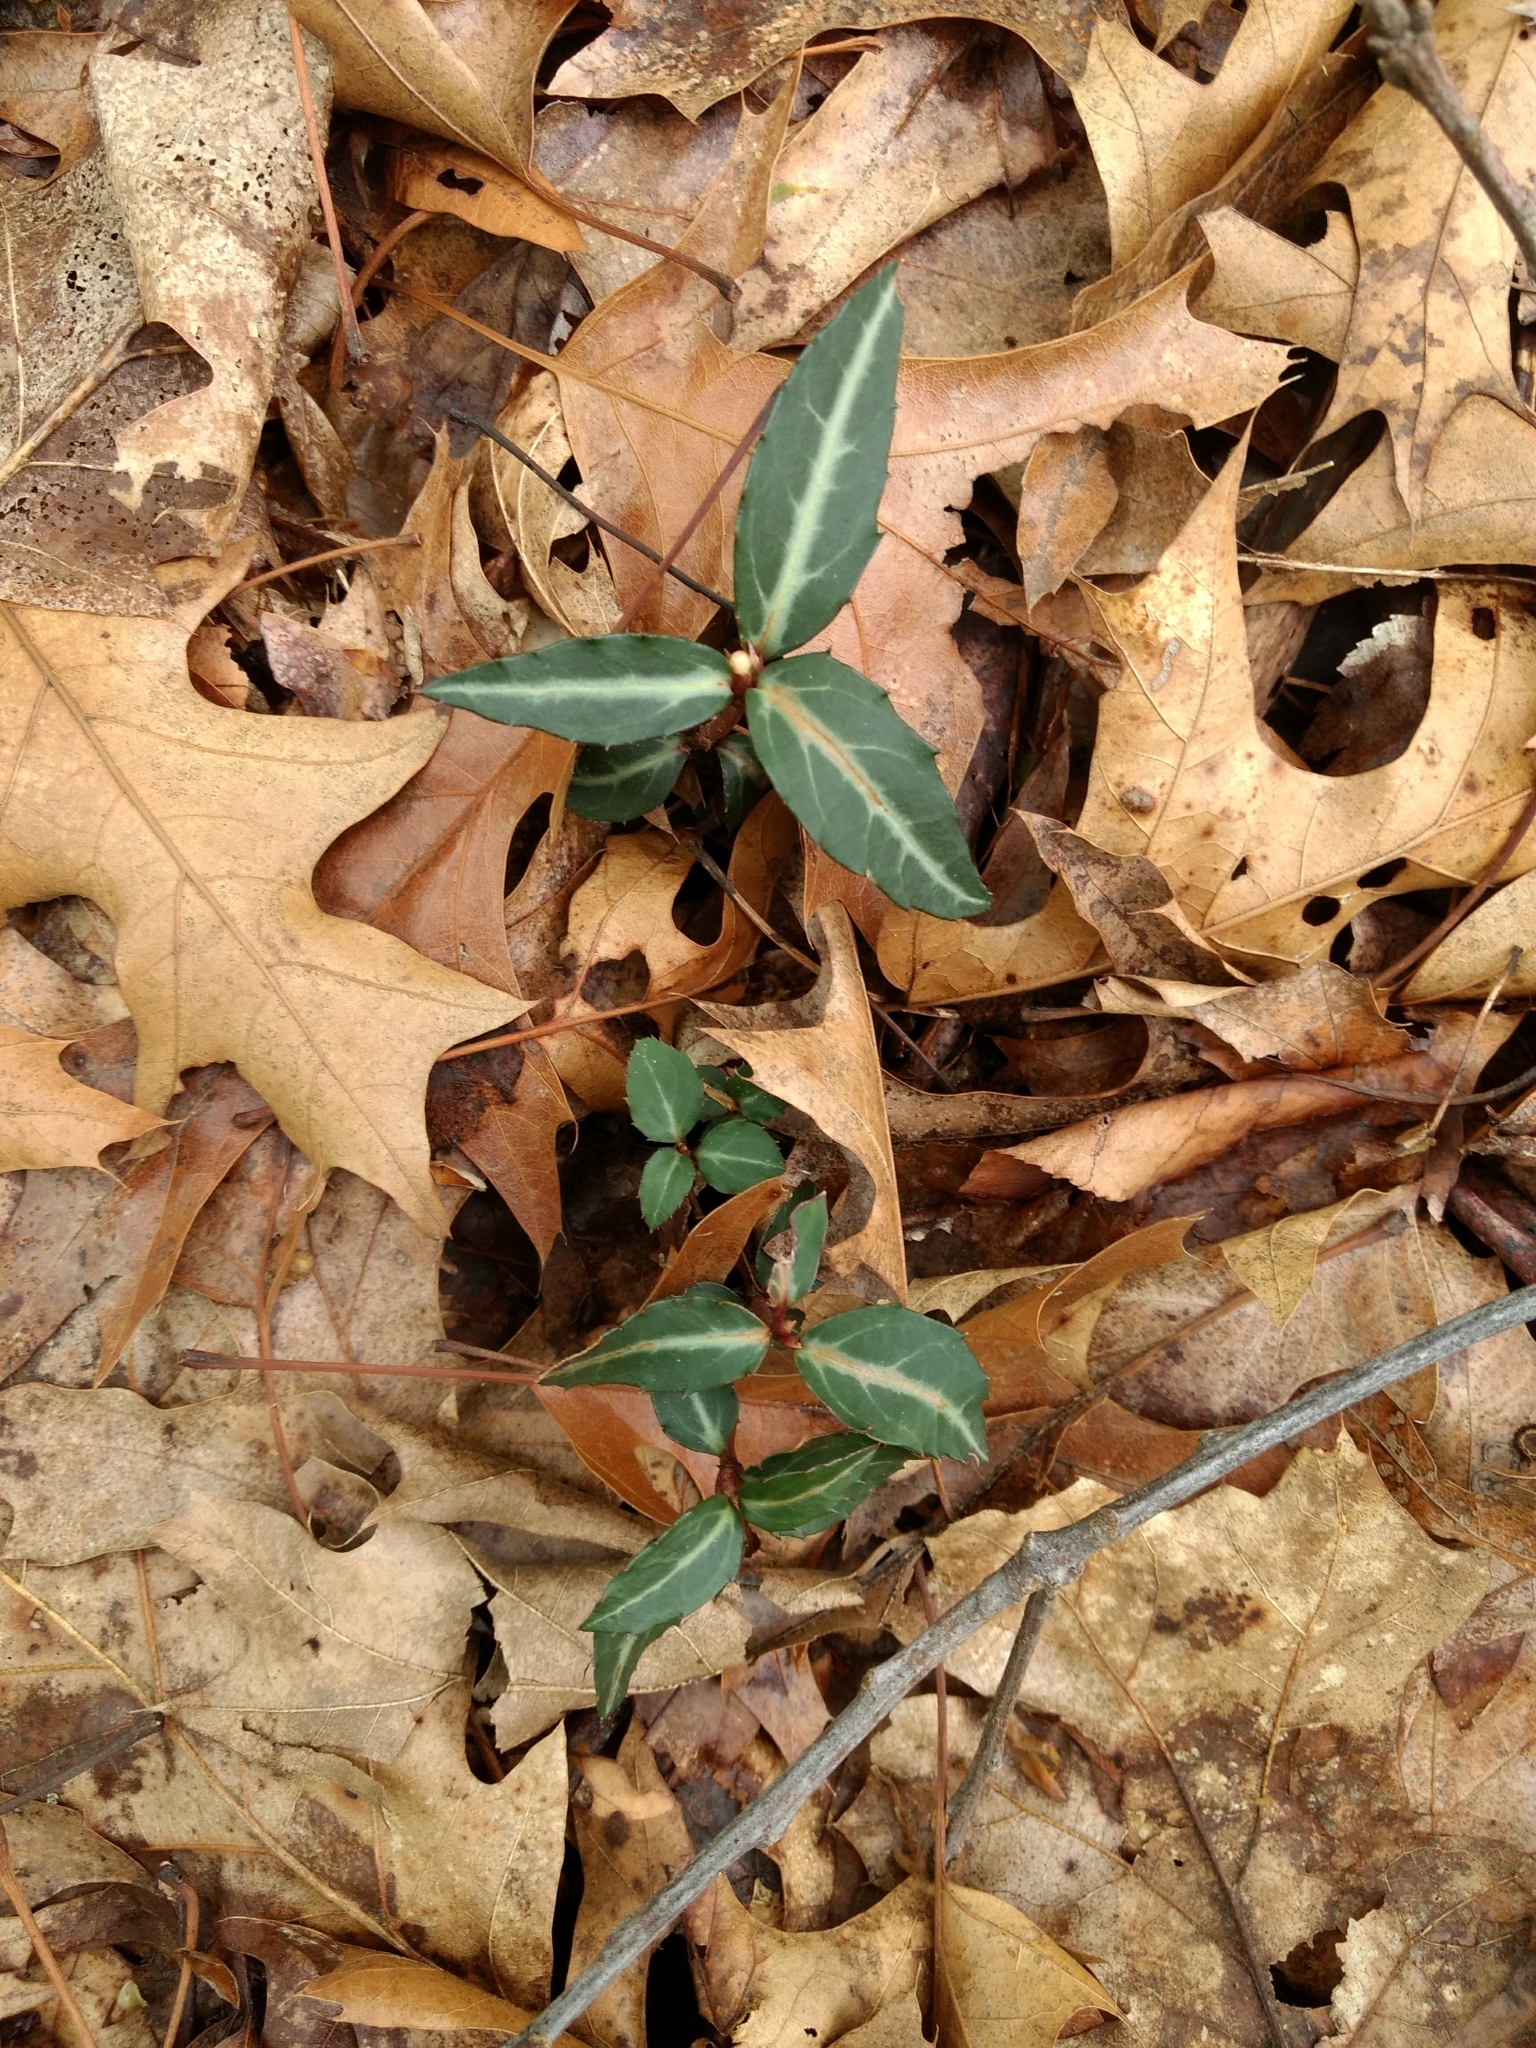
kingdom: Plantae
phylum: Tracheophyta
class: Magnoliopsida
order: Ericales
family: Ericaceae
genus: Chimaphila
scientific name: Chimaphila maculata
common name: Spotted pipsissewa
